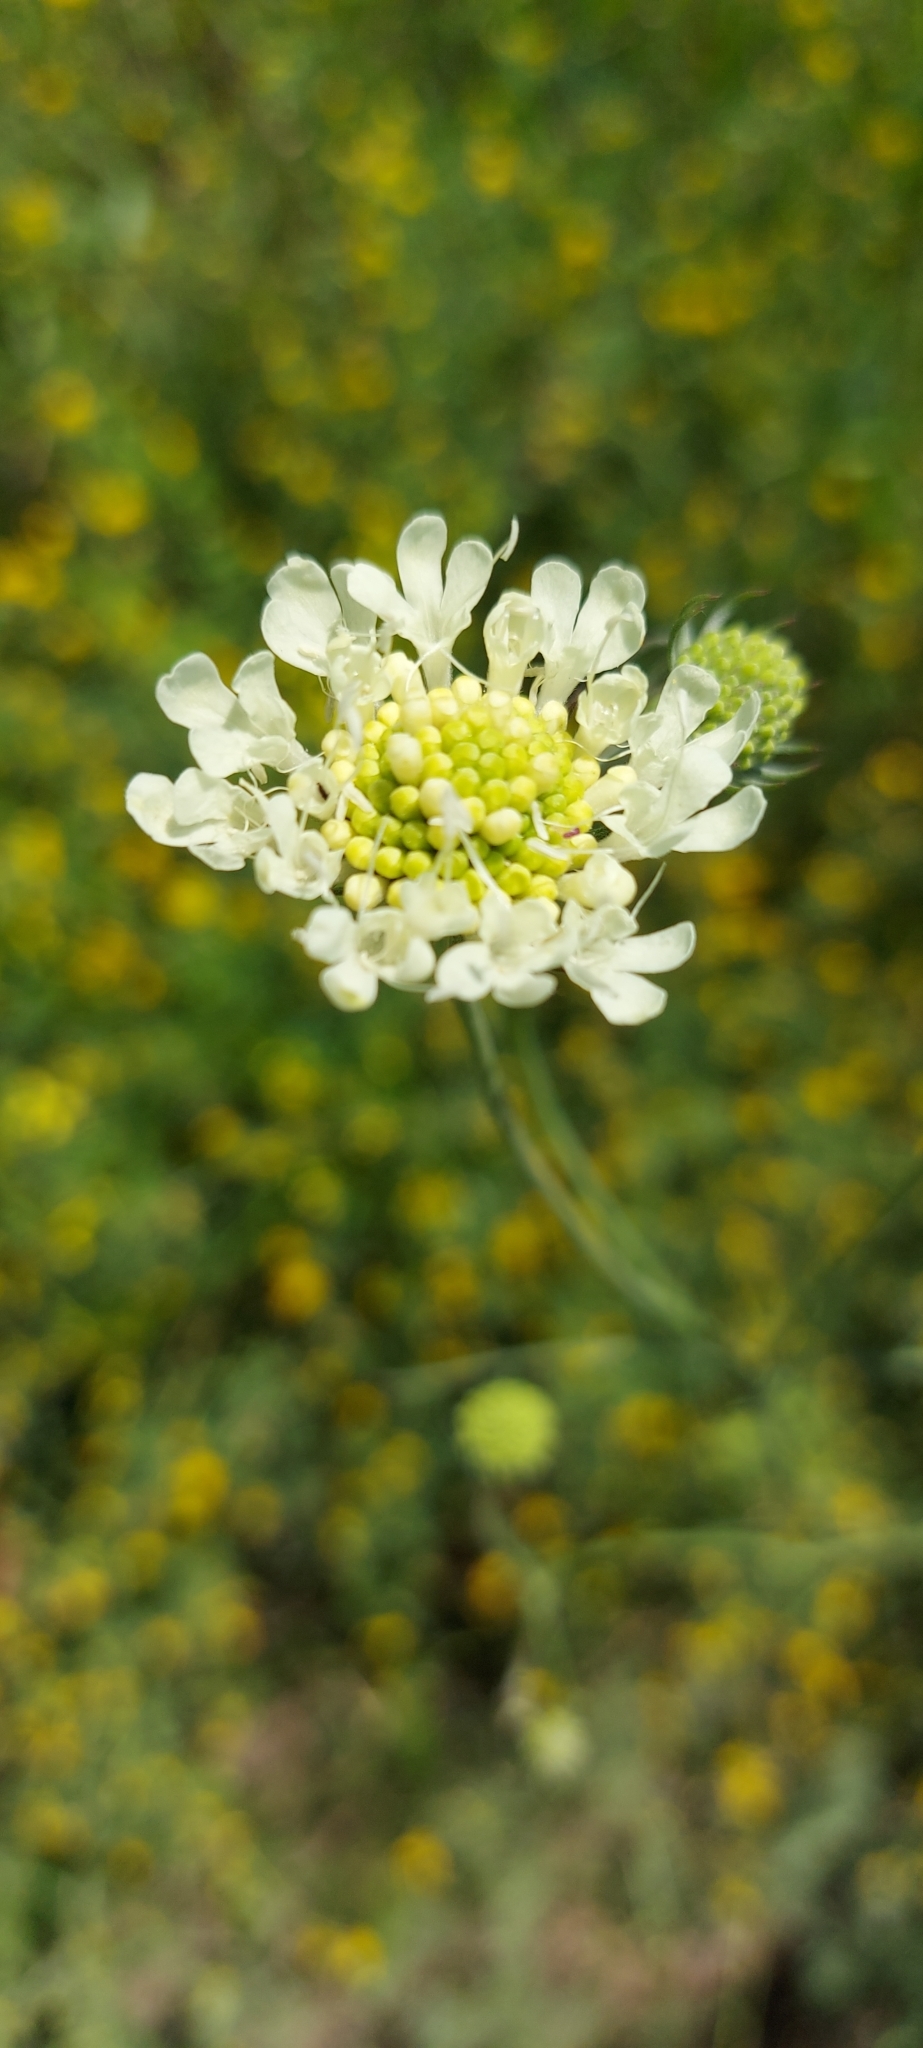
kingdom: Plantae
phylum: Tracheophyta
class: Magnoliopsida
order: Dipsacales
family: Caprifoliaceae
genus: Scabiosa
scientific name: Scabiosa ochroleuca
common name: Cream pincushions
